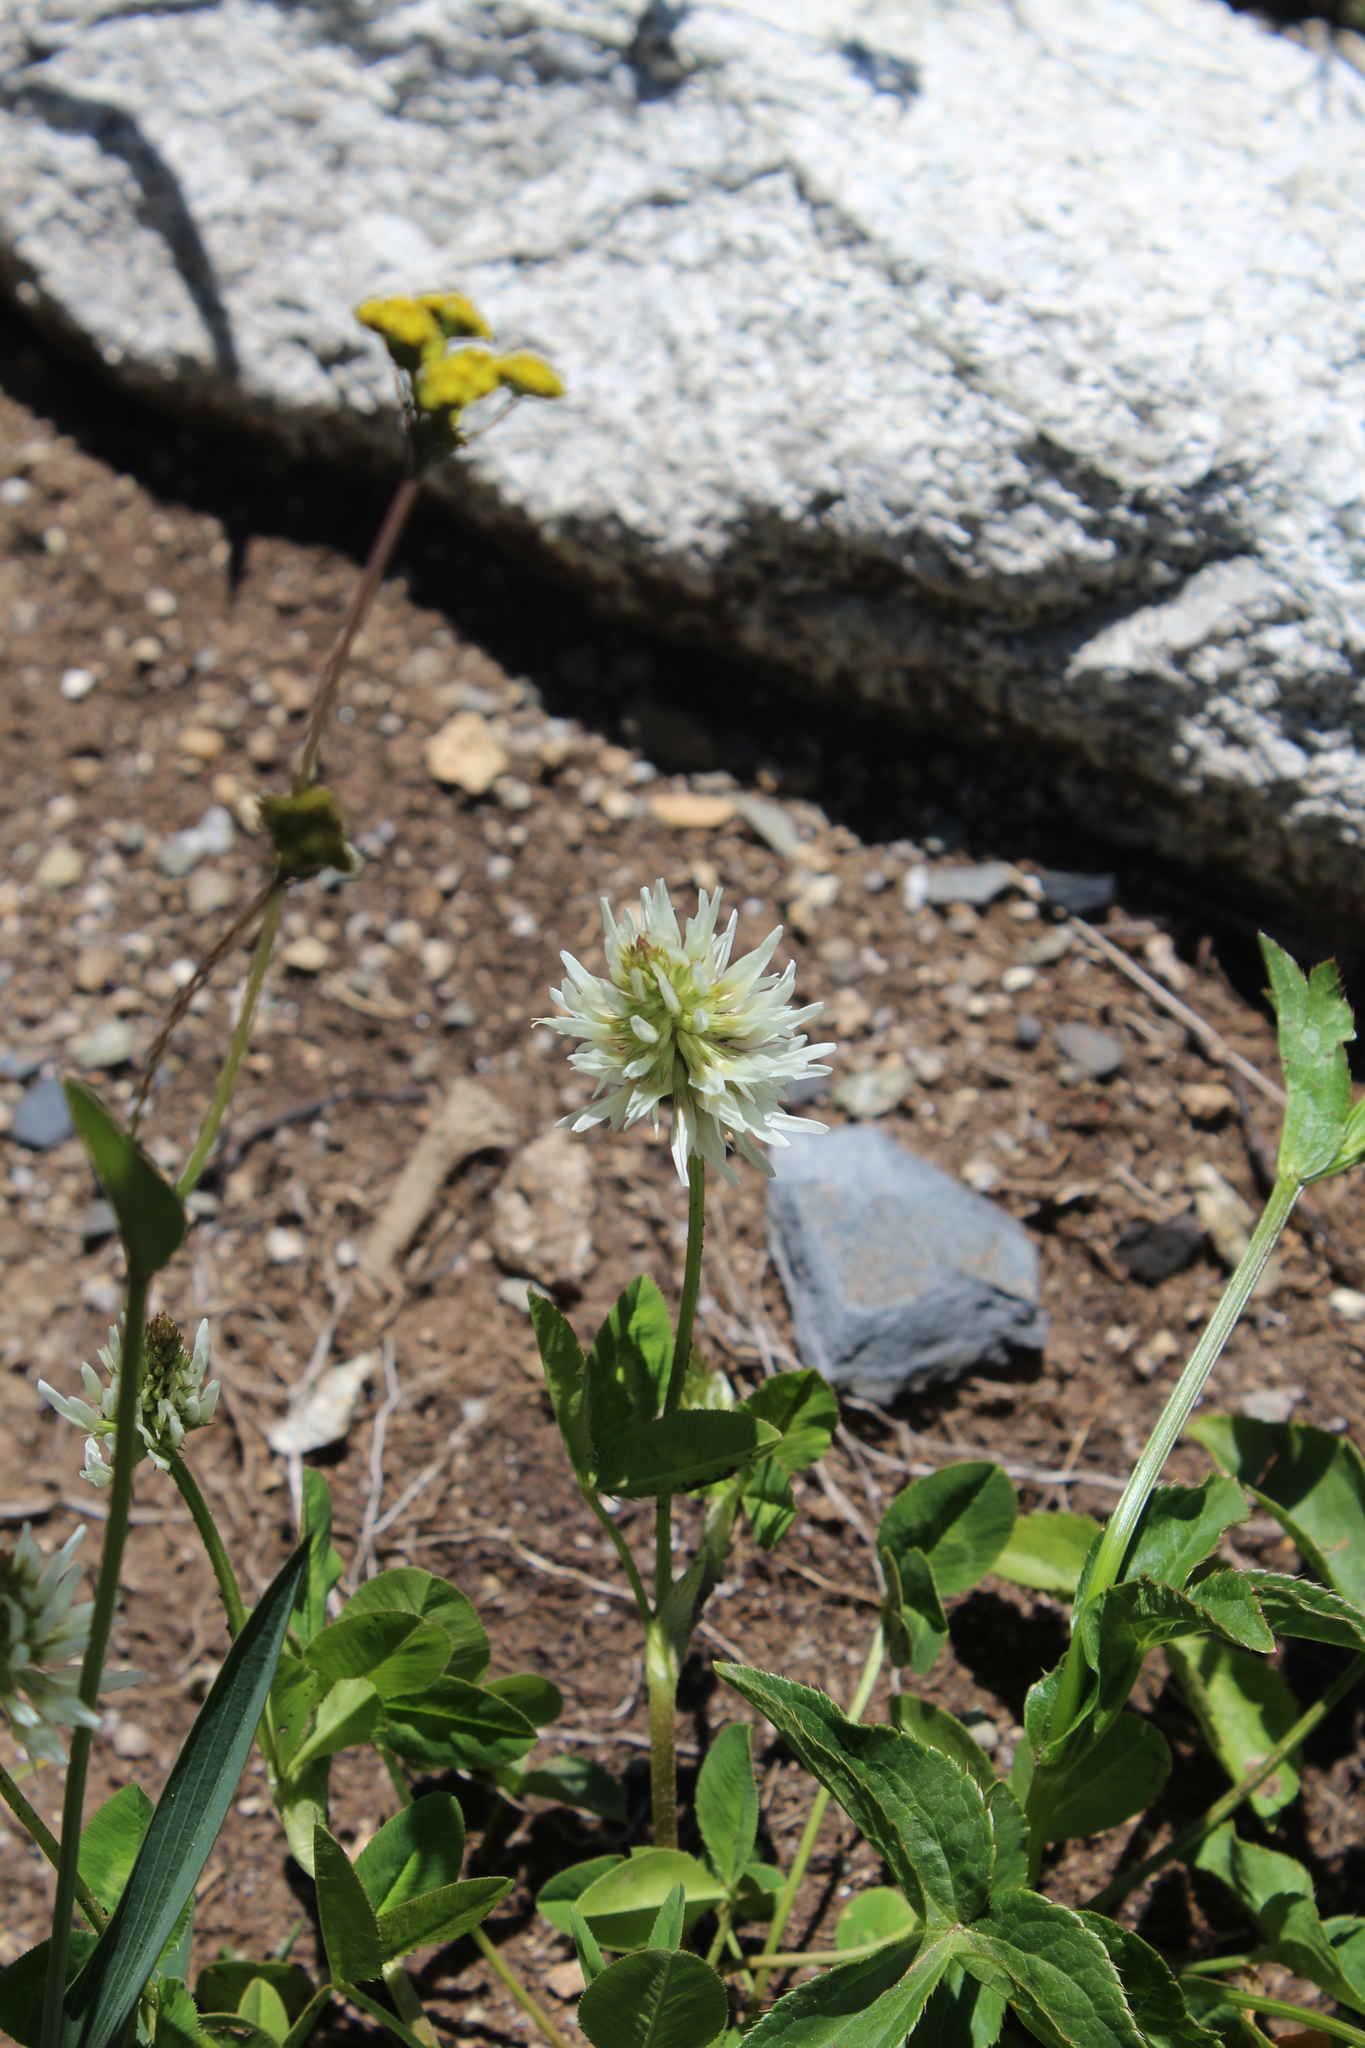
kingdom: Plantae
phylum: Tracheophyta
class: Magnoliopsida
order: Fabales
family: Fabaceae
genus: Trifolium
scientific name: Trifolium ambiguum
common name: Kura clover
